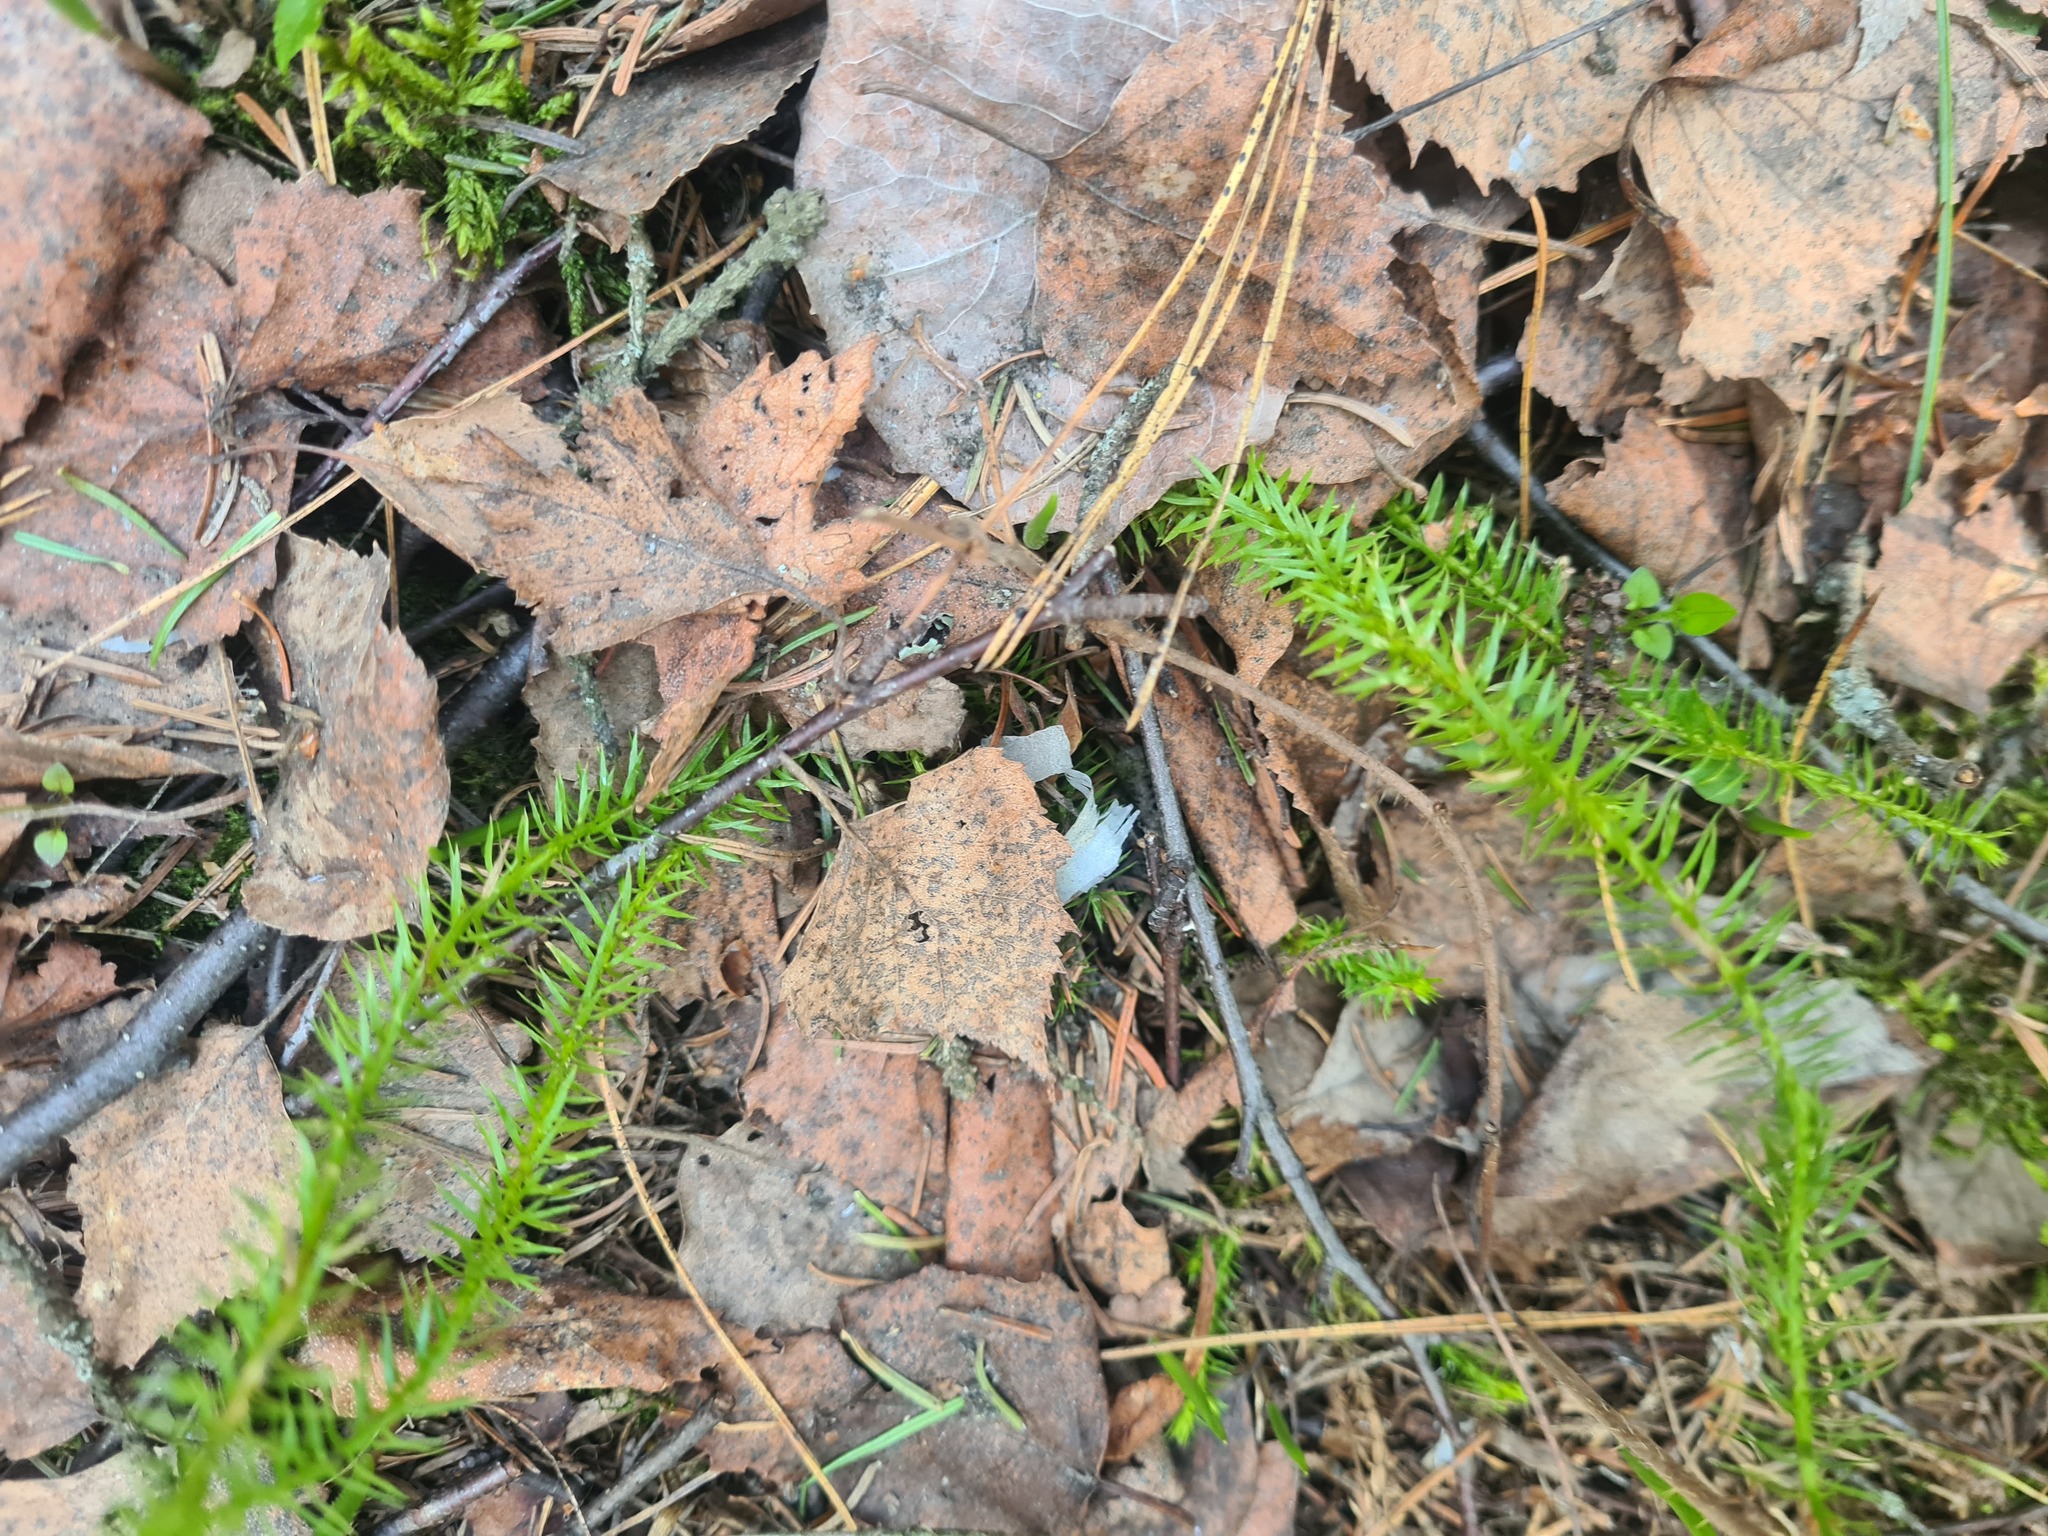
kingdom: Plantae
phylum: Tracheophyta
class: Lycopodiopsida
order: Lycopodiales
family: Lycopodiaceae
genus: Spinulum
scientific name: Spinulum annotinum
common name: Interrupted club-moss
